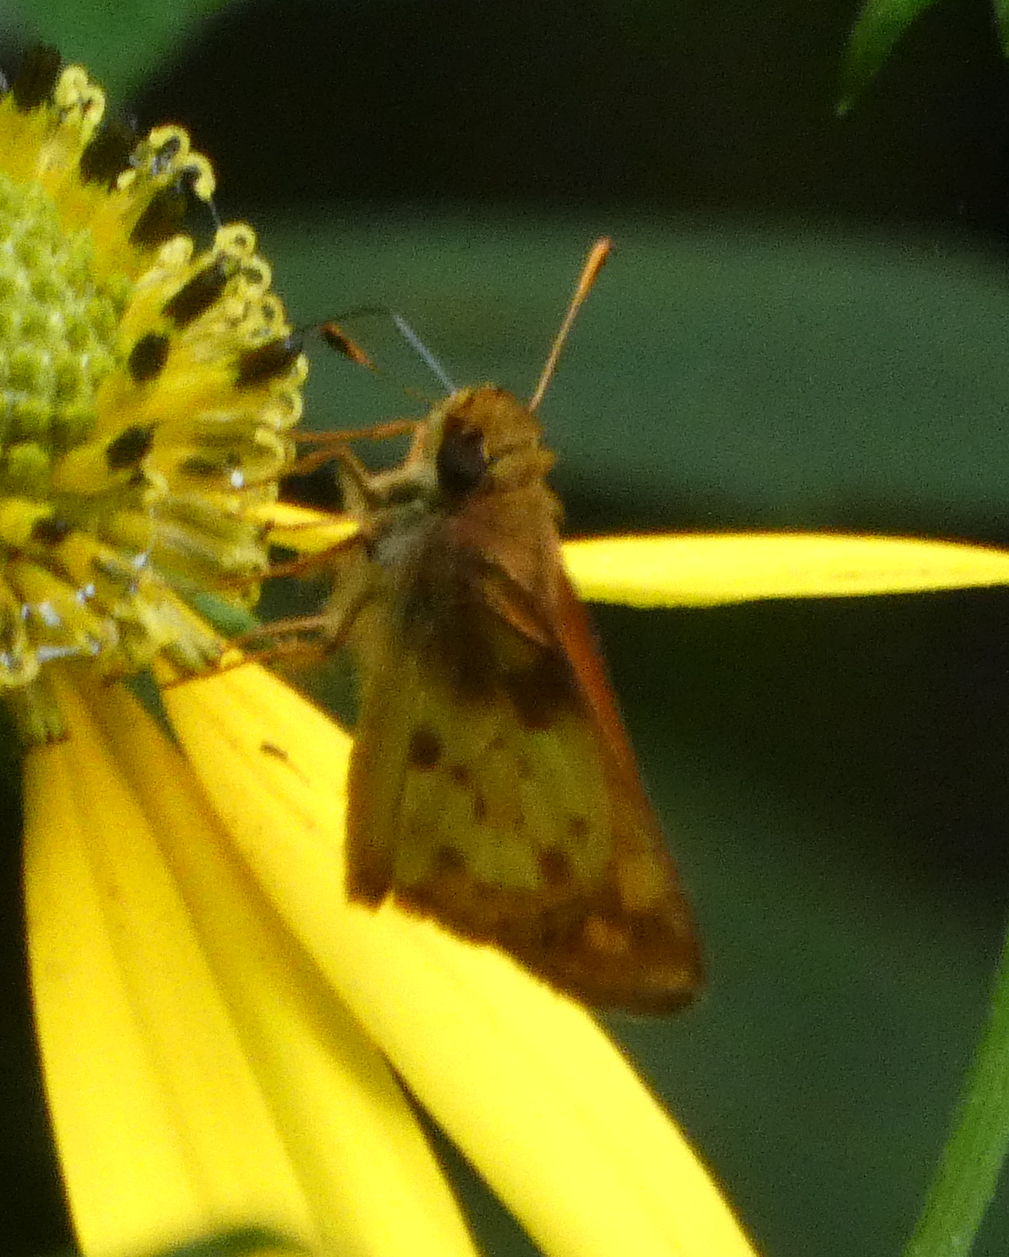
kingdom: Animalia
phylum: Arthropoda
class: Insecta
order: Lepidoptera
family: Hesperiidae
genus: Lon
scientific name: Lon zabulon
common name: Zabulon skipper
